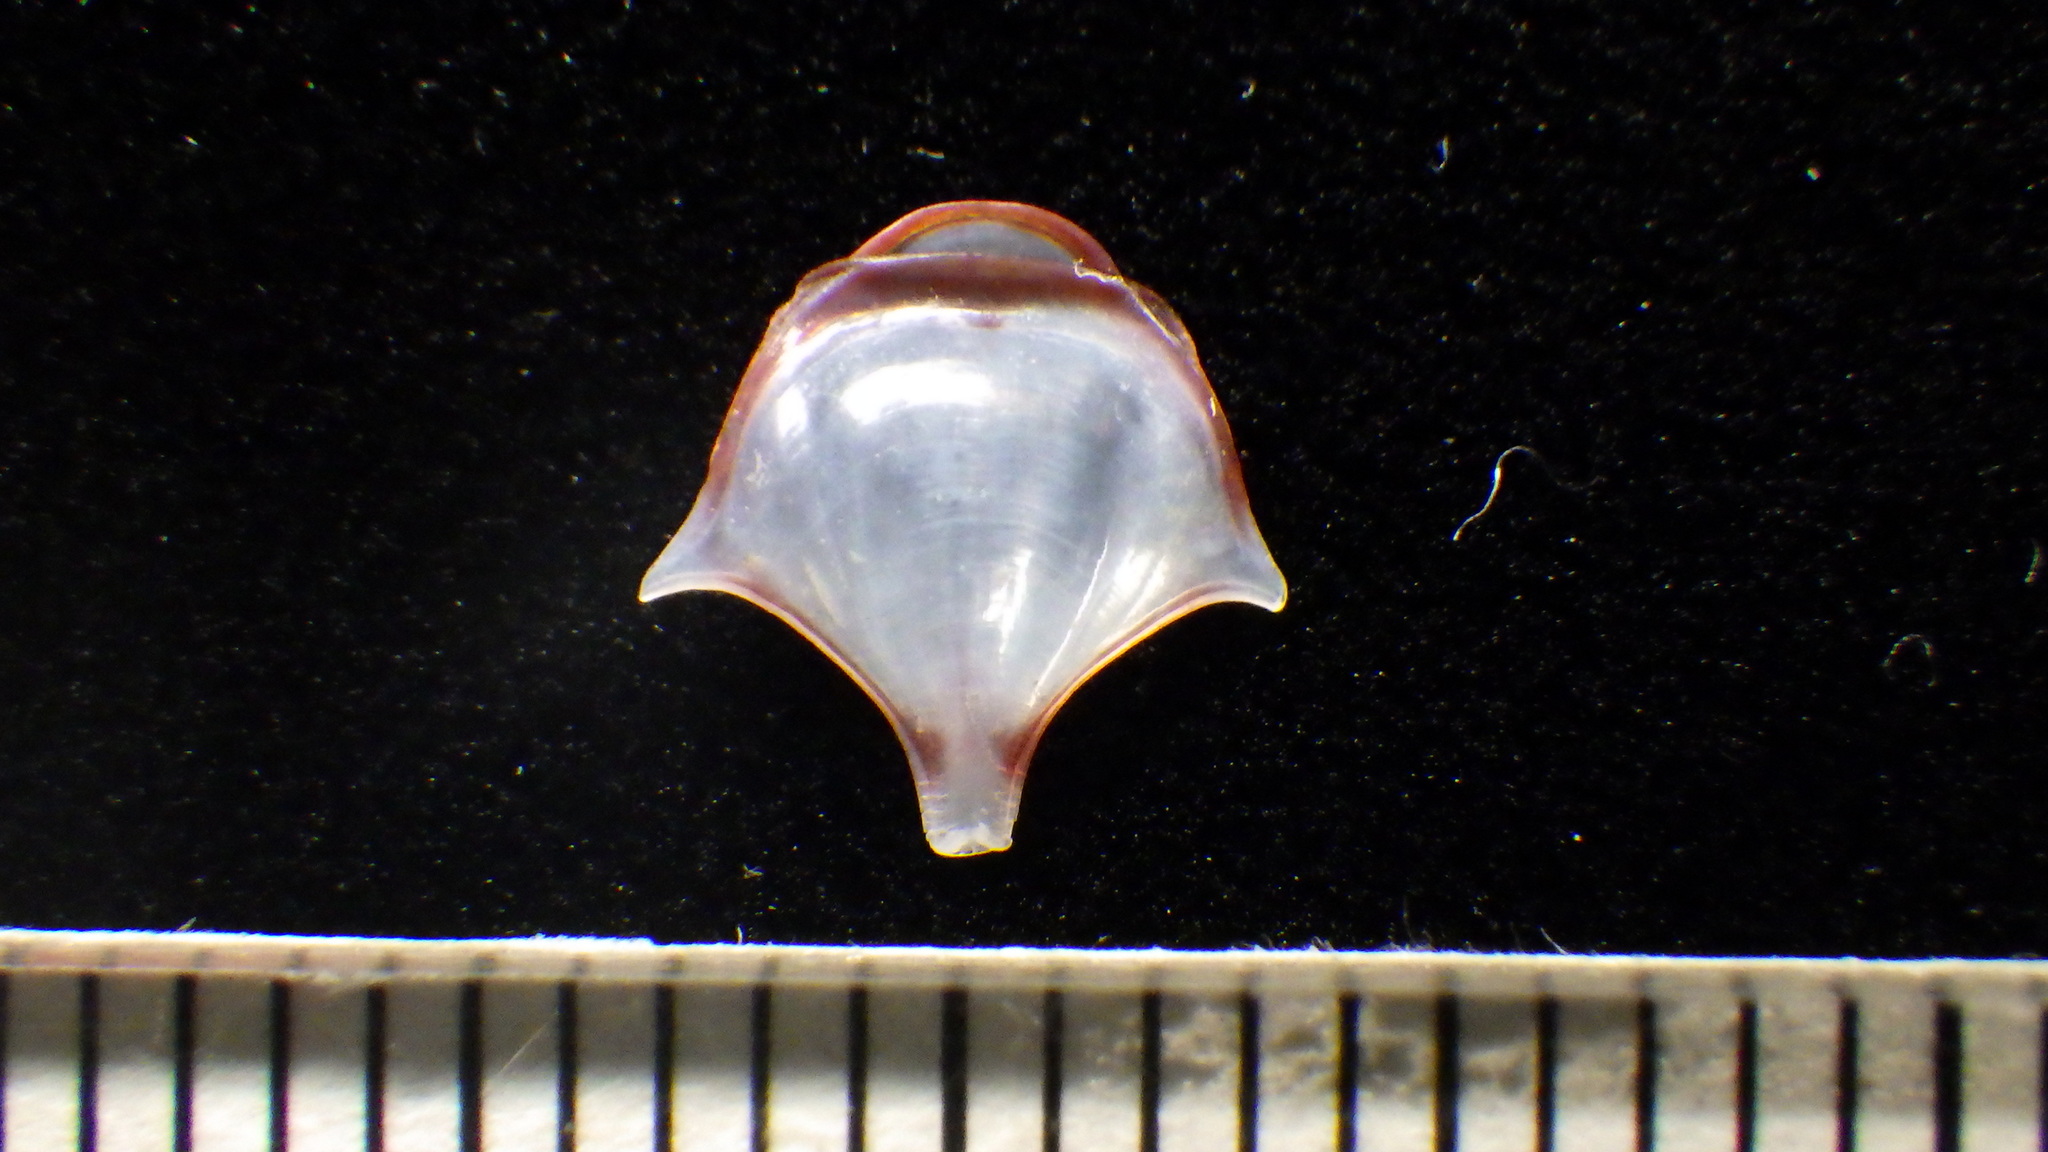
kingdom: Animalia
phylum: Mollusca
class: Gastropoda
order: Pteropoda
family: Cavoliniidae
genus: Diacria
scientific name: Diacria major
